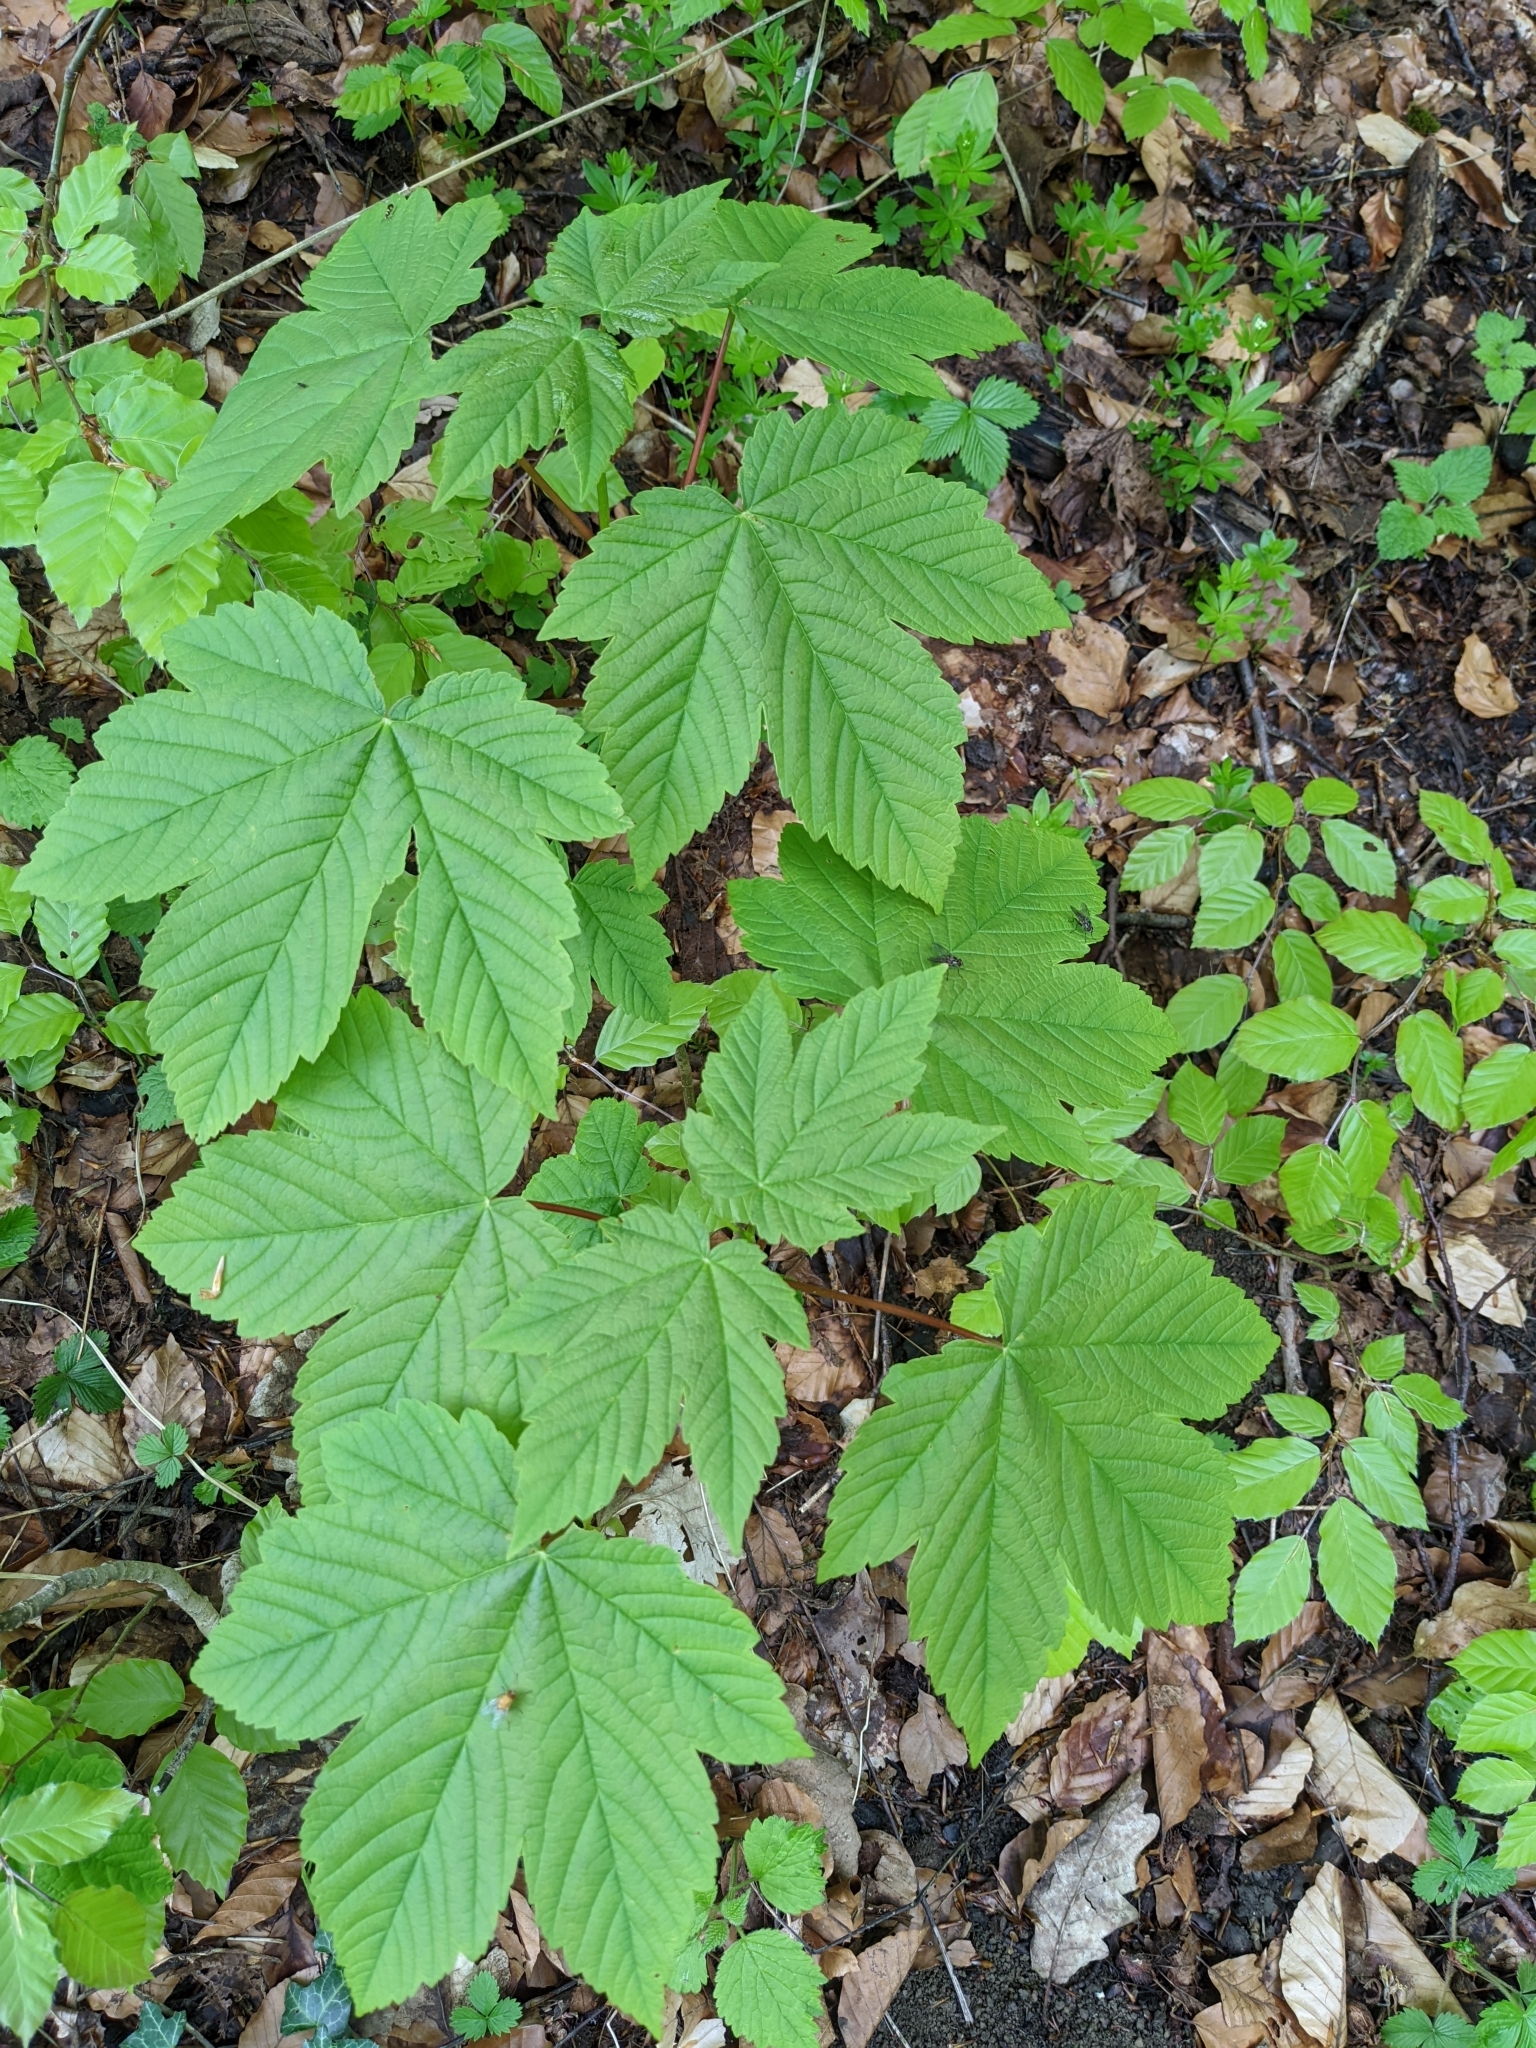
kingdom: Plantae
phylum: Tracheophyta
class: Magnoliopsida
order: Sapindales
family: Sapindaceae
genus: Acer
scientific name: Acer pseudoplatanus
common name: Sycamore
